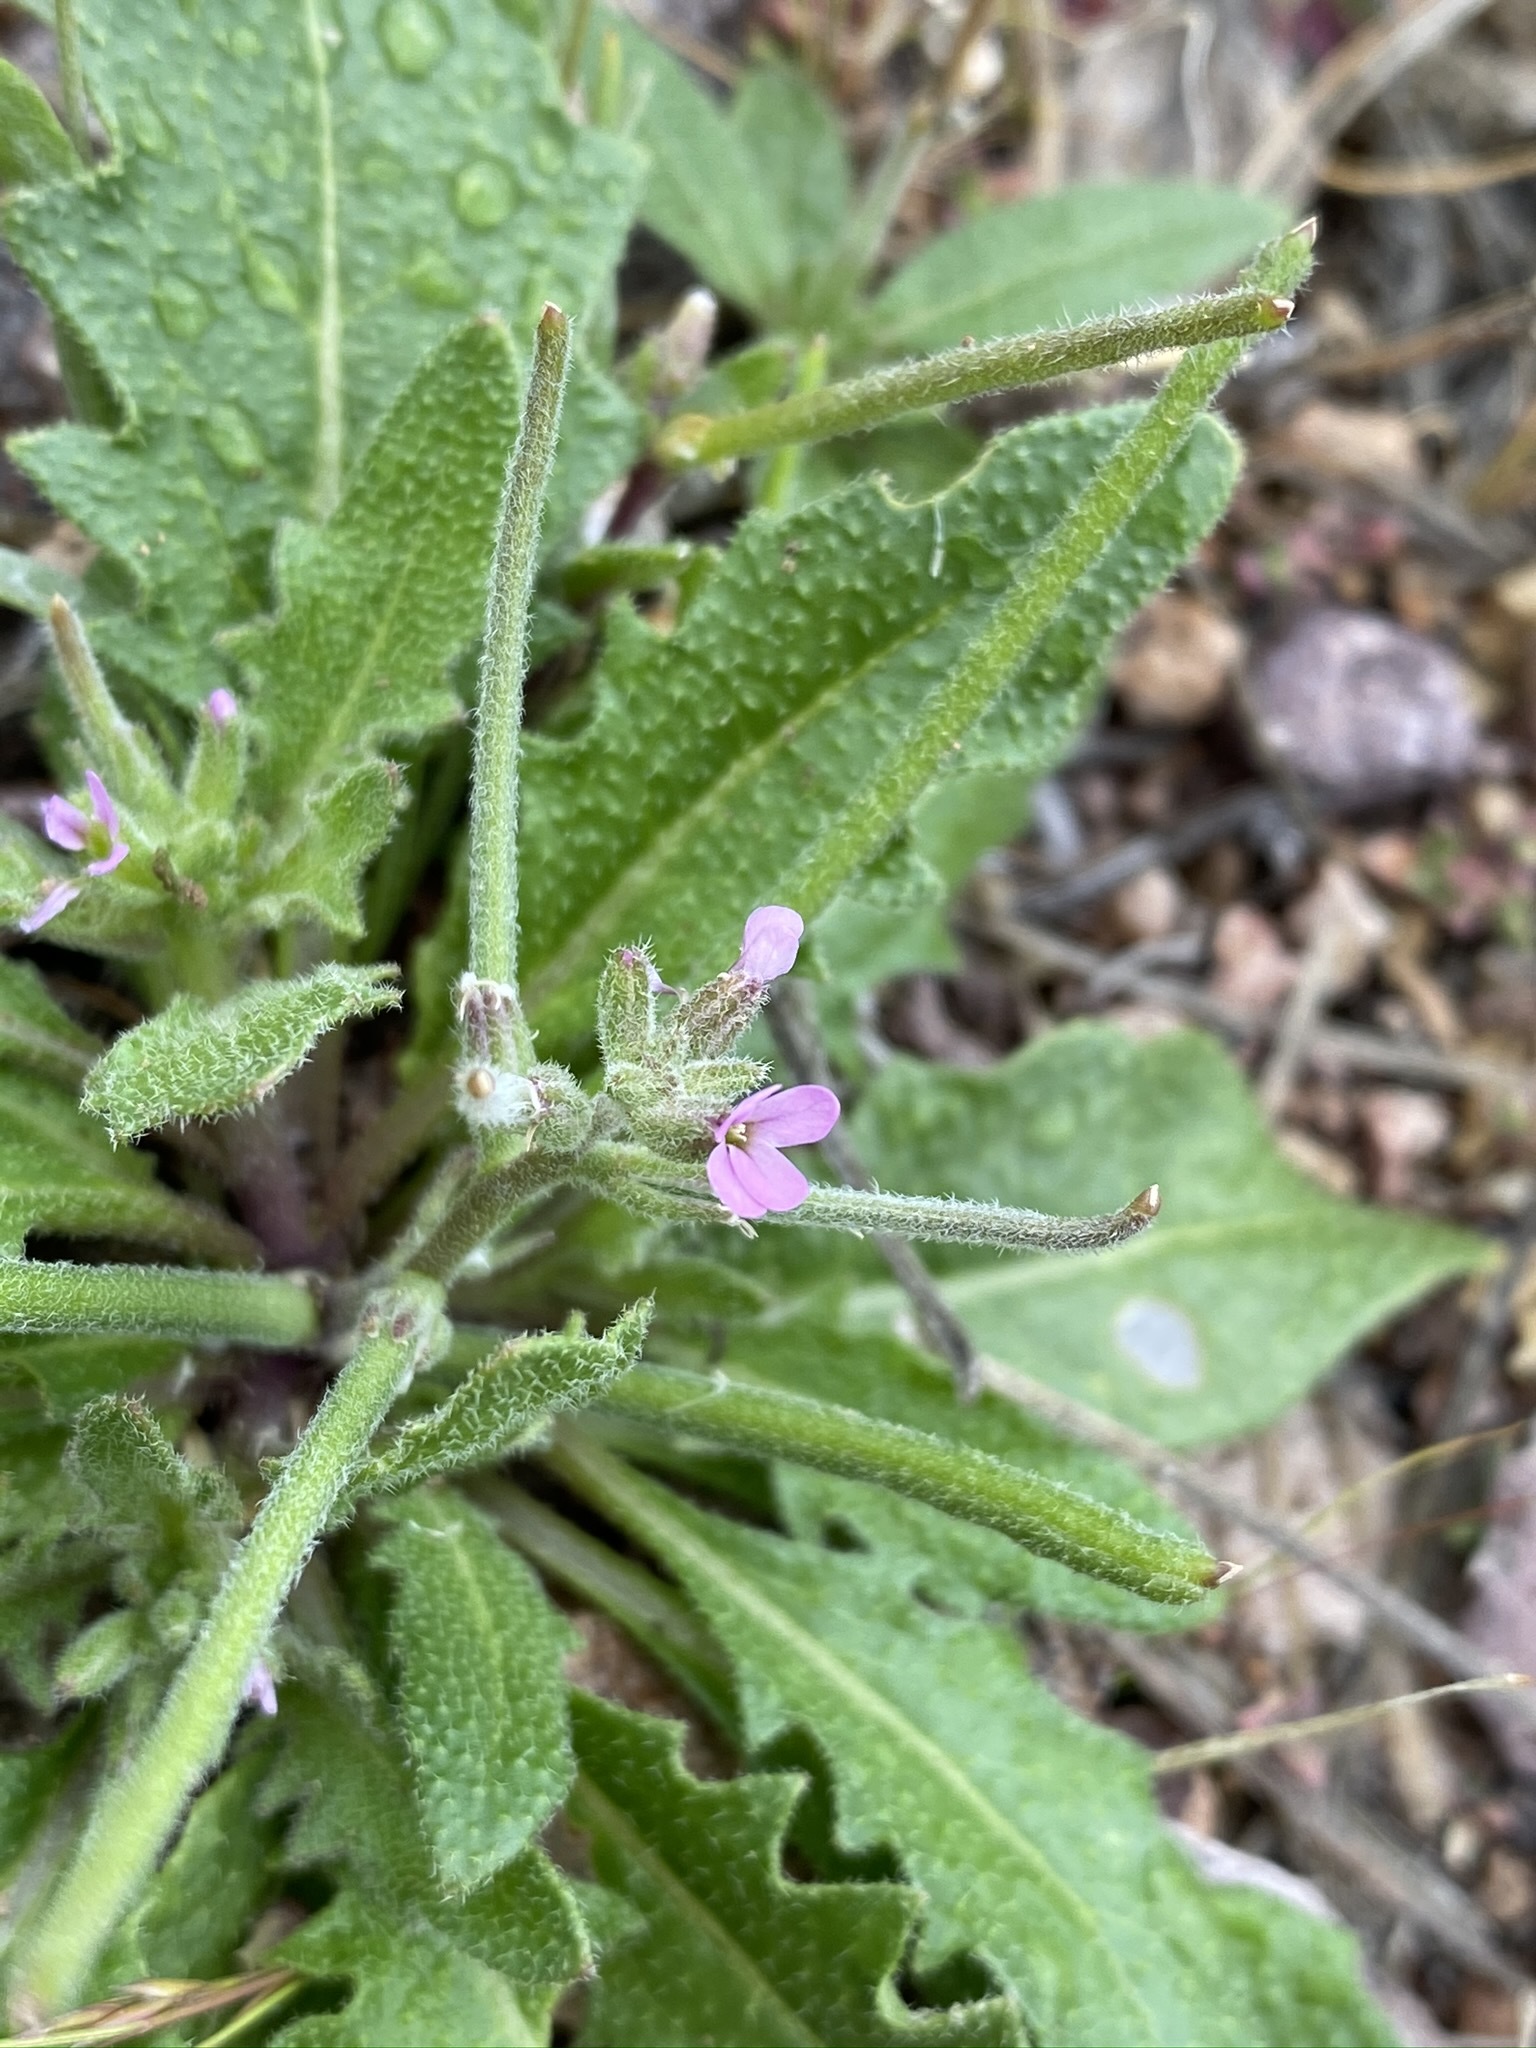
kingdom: Plantae
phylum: Tracheophyta
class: Magnoliopsida
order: Brassicales
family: Brassicaceae
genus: Strigosella
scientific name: Strigosella africana
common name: African mustard
